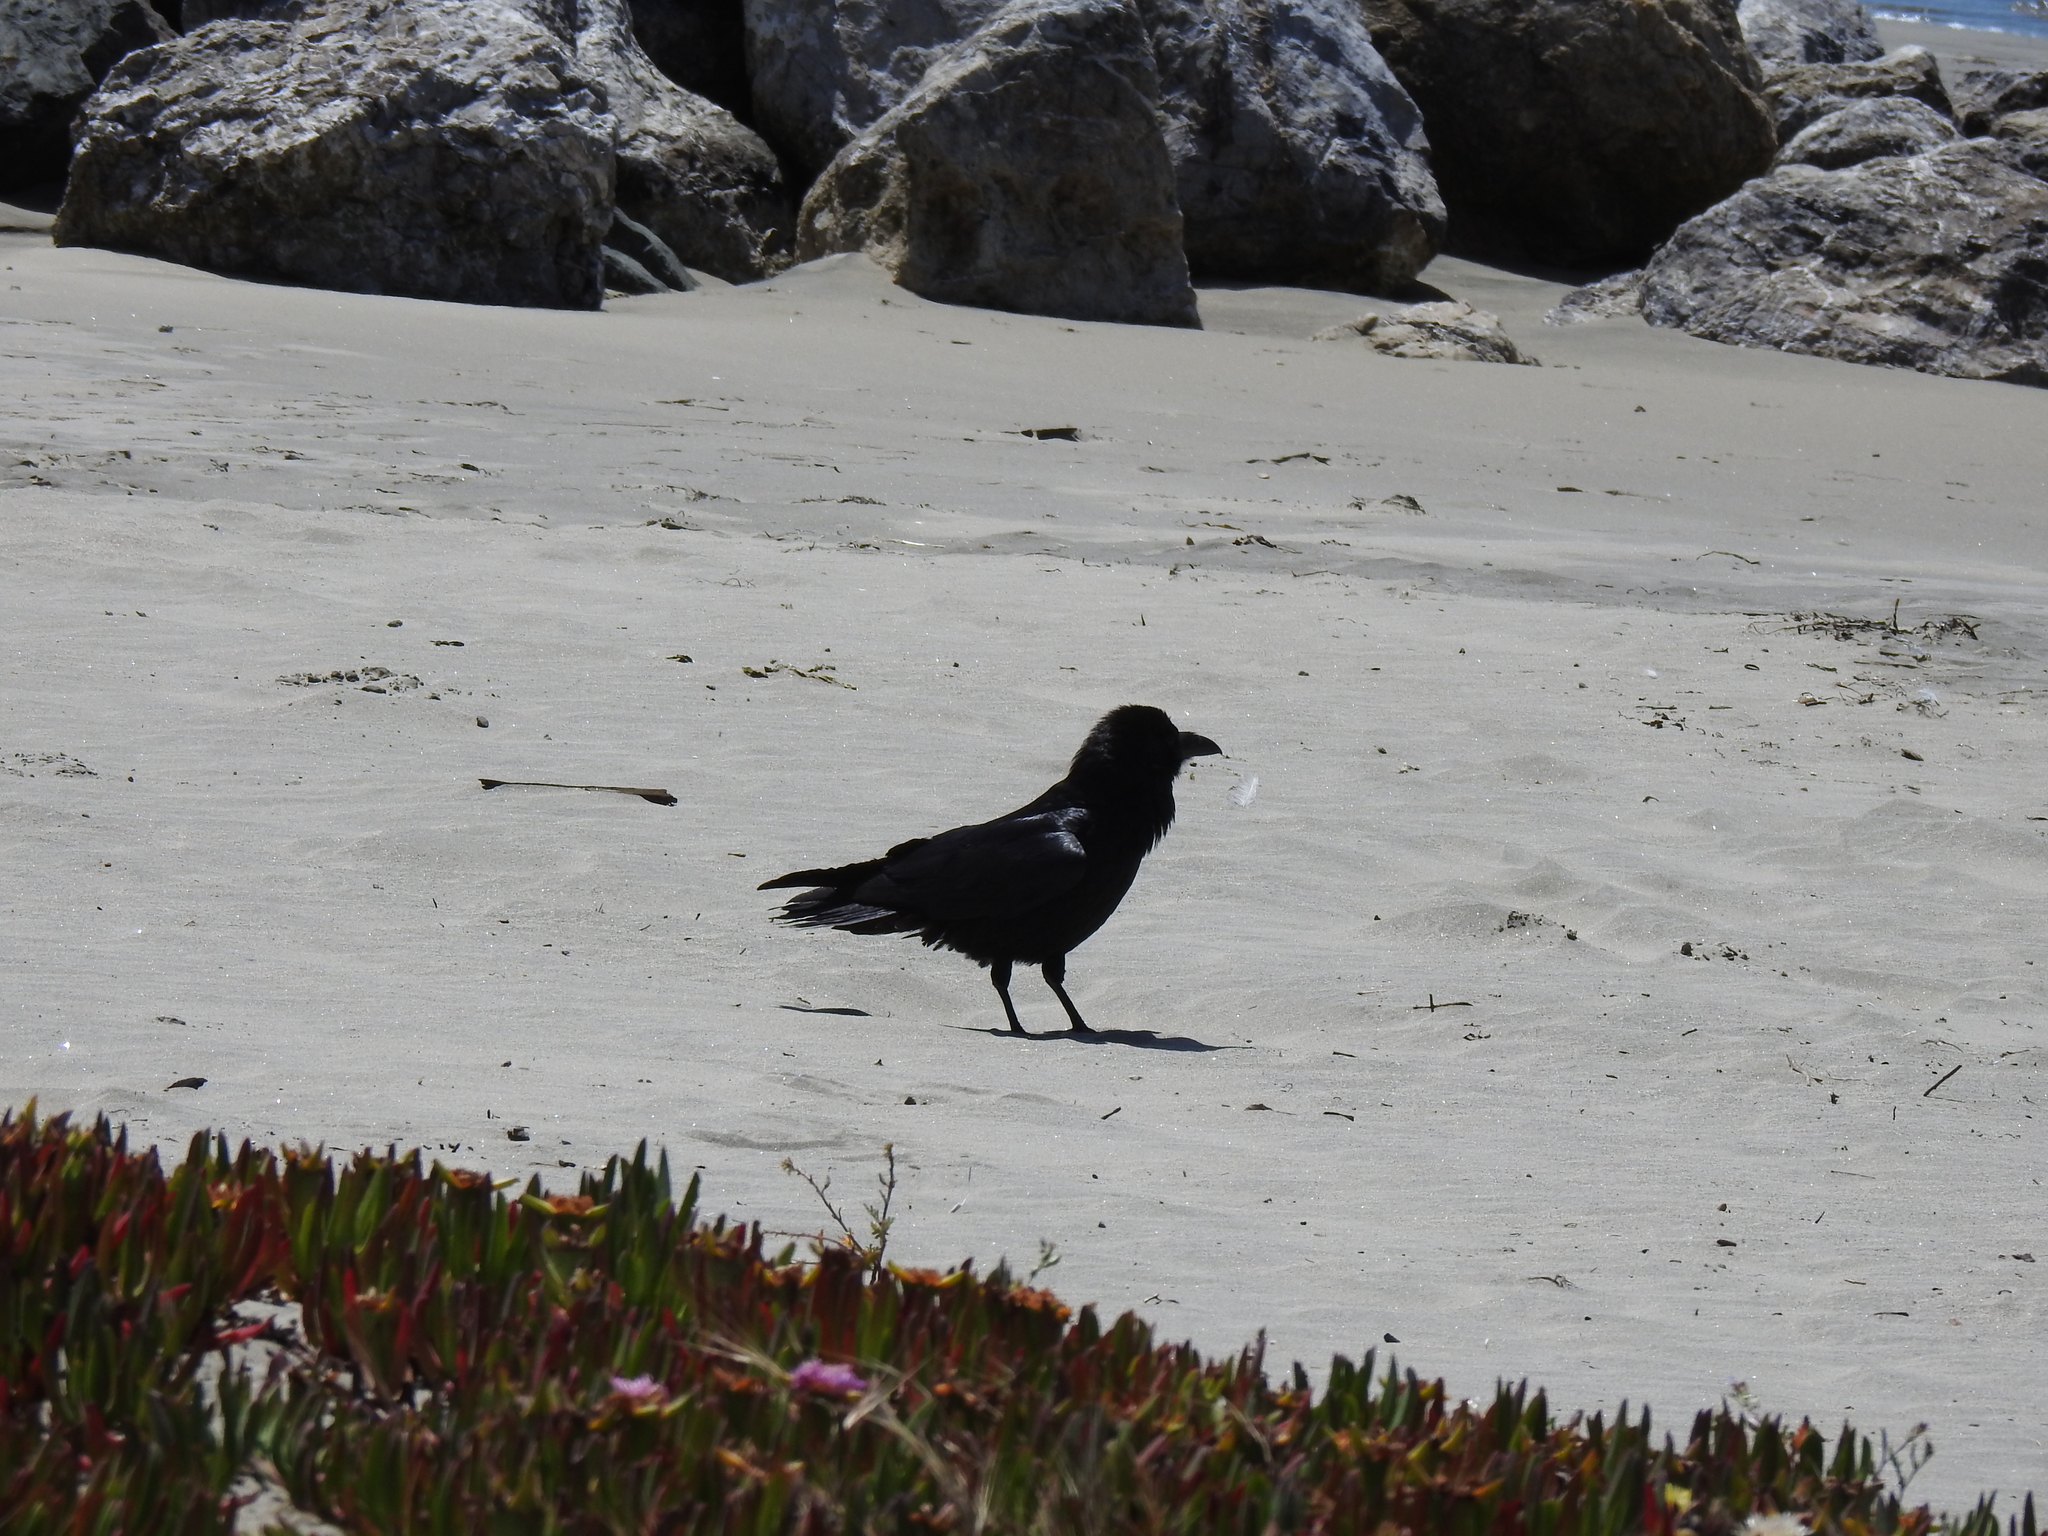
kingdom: Animalia
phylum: Chordata
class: Aves
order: Passeriformes
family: Corvidae
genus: Corvus
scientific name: Corvus corax
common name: Common raven
